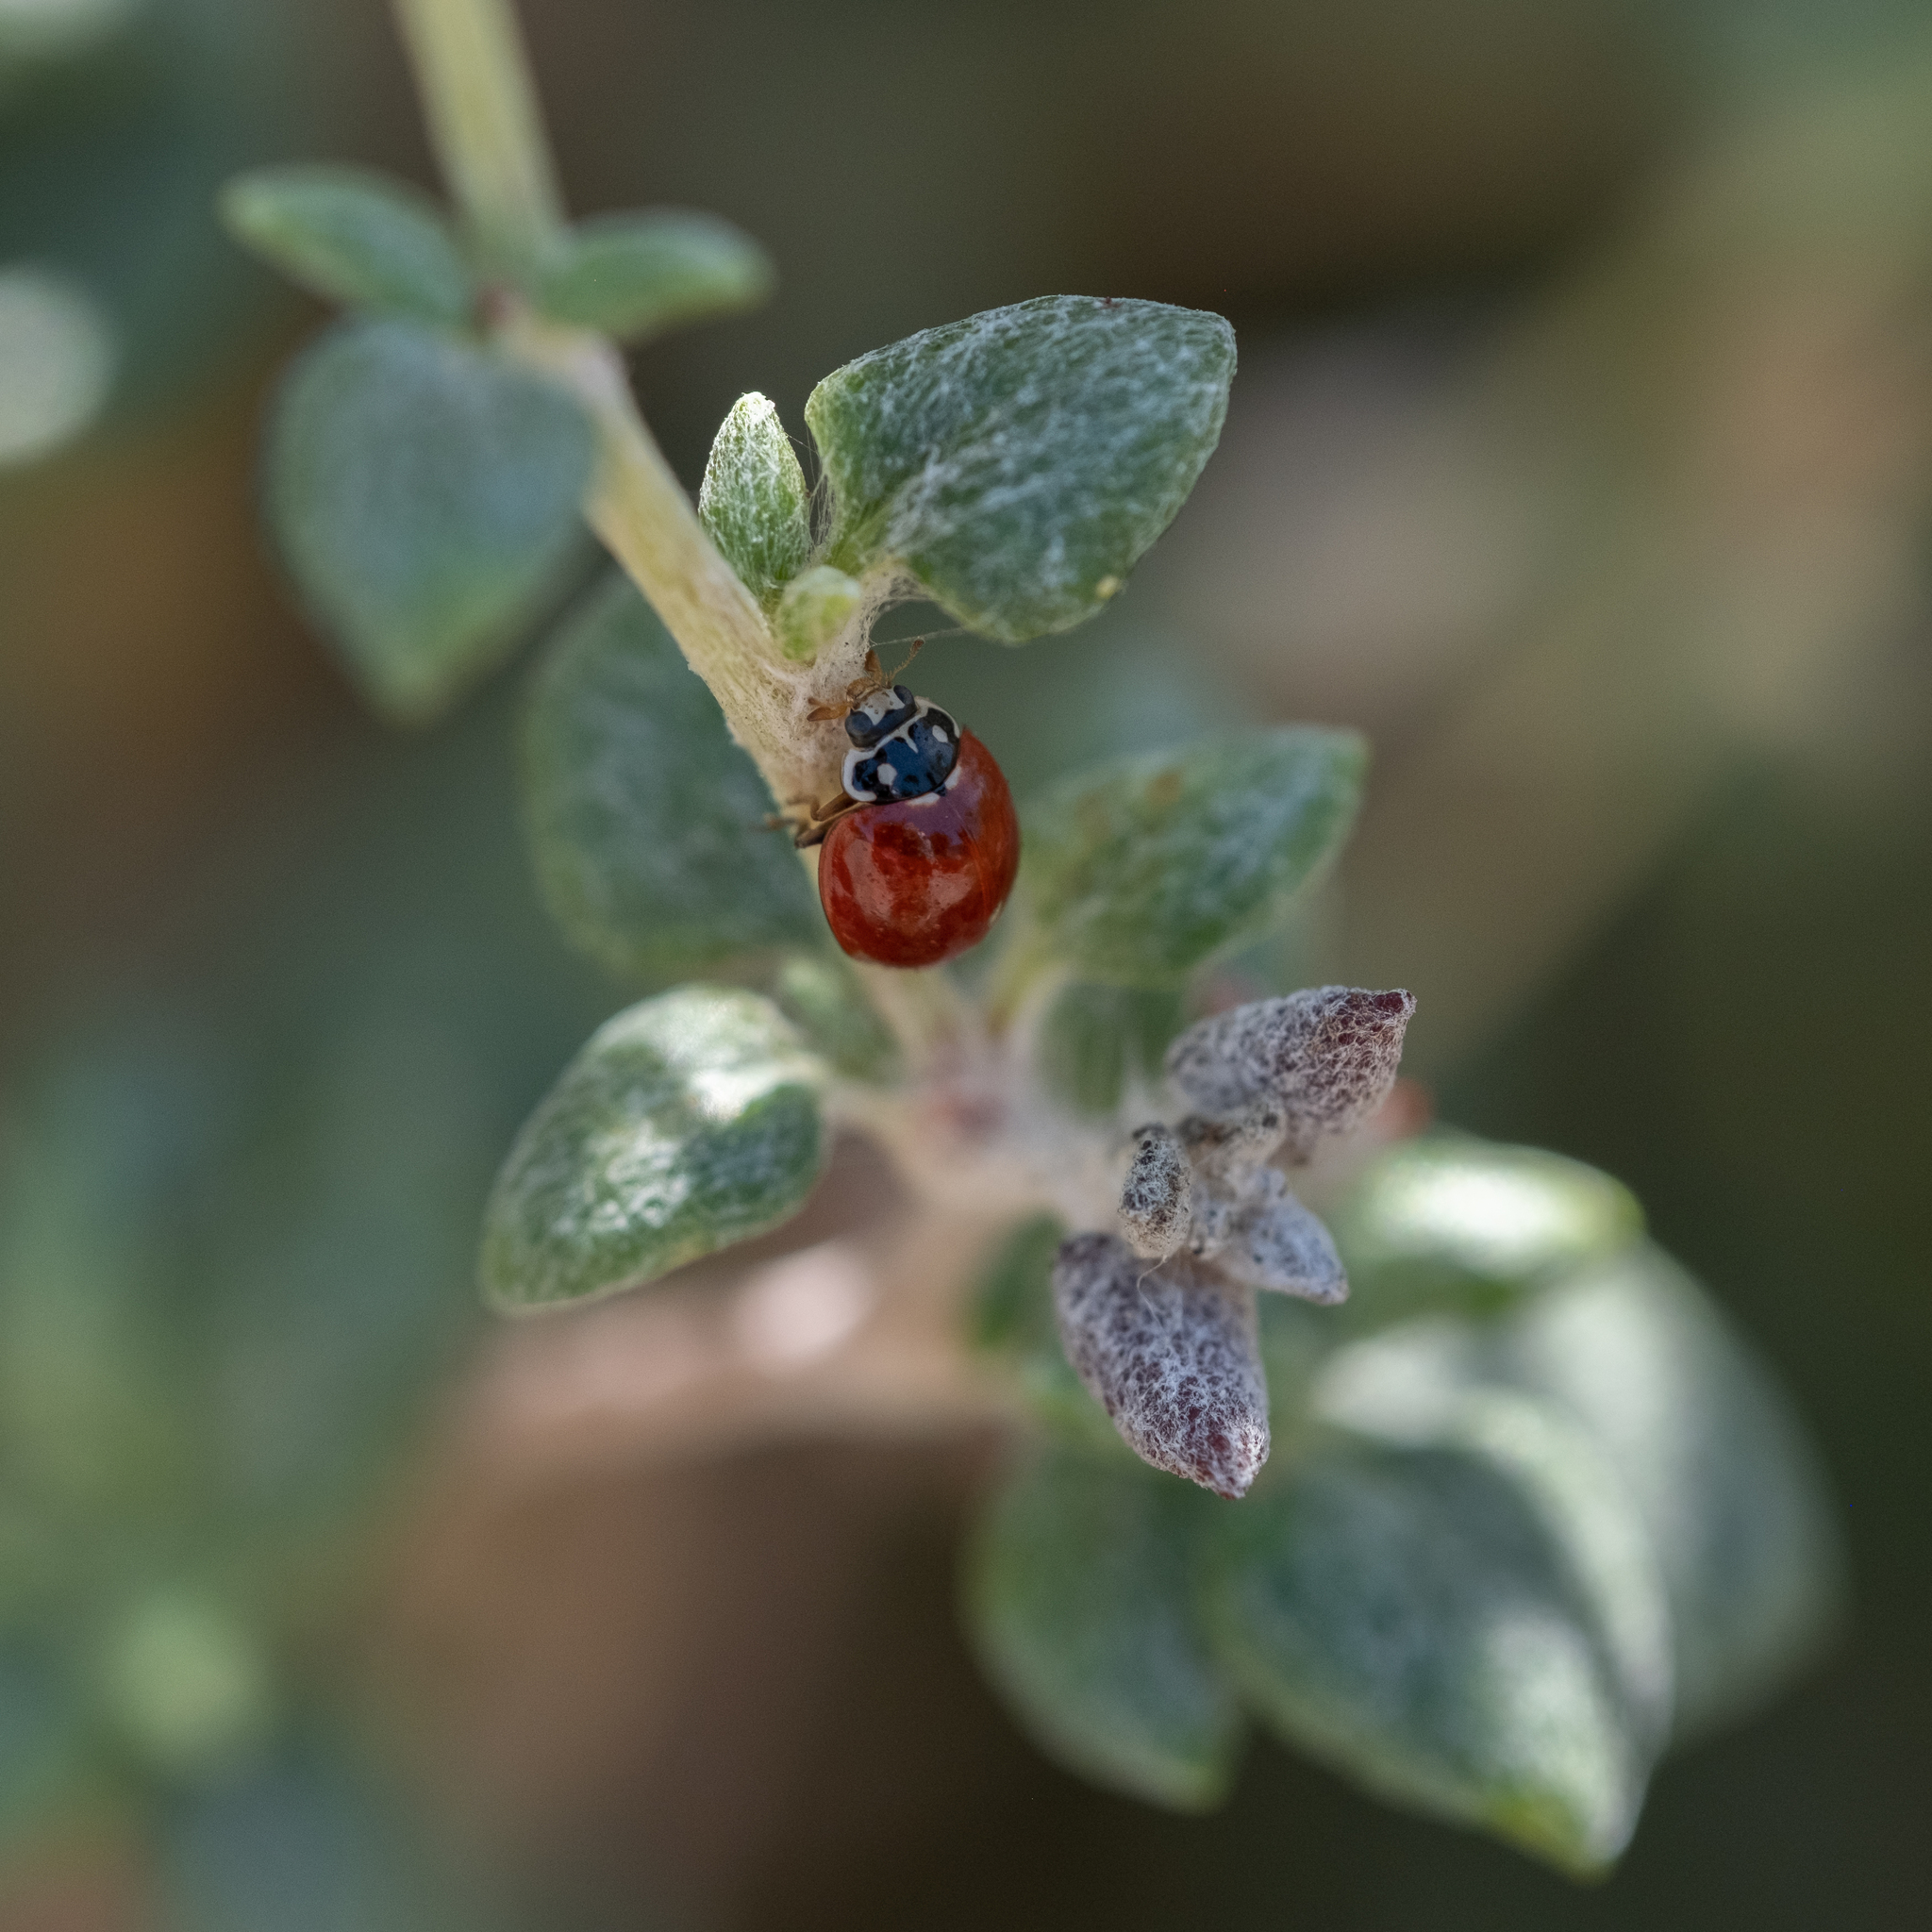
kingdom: Animalia
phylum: Arthropoda
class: Insecta
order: Coleoptera
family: Coccinellidae
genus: Cycloneda
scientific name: Cycloneda sanguinea
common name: Ladybird beetle
